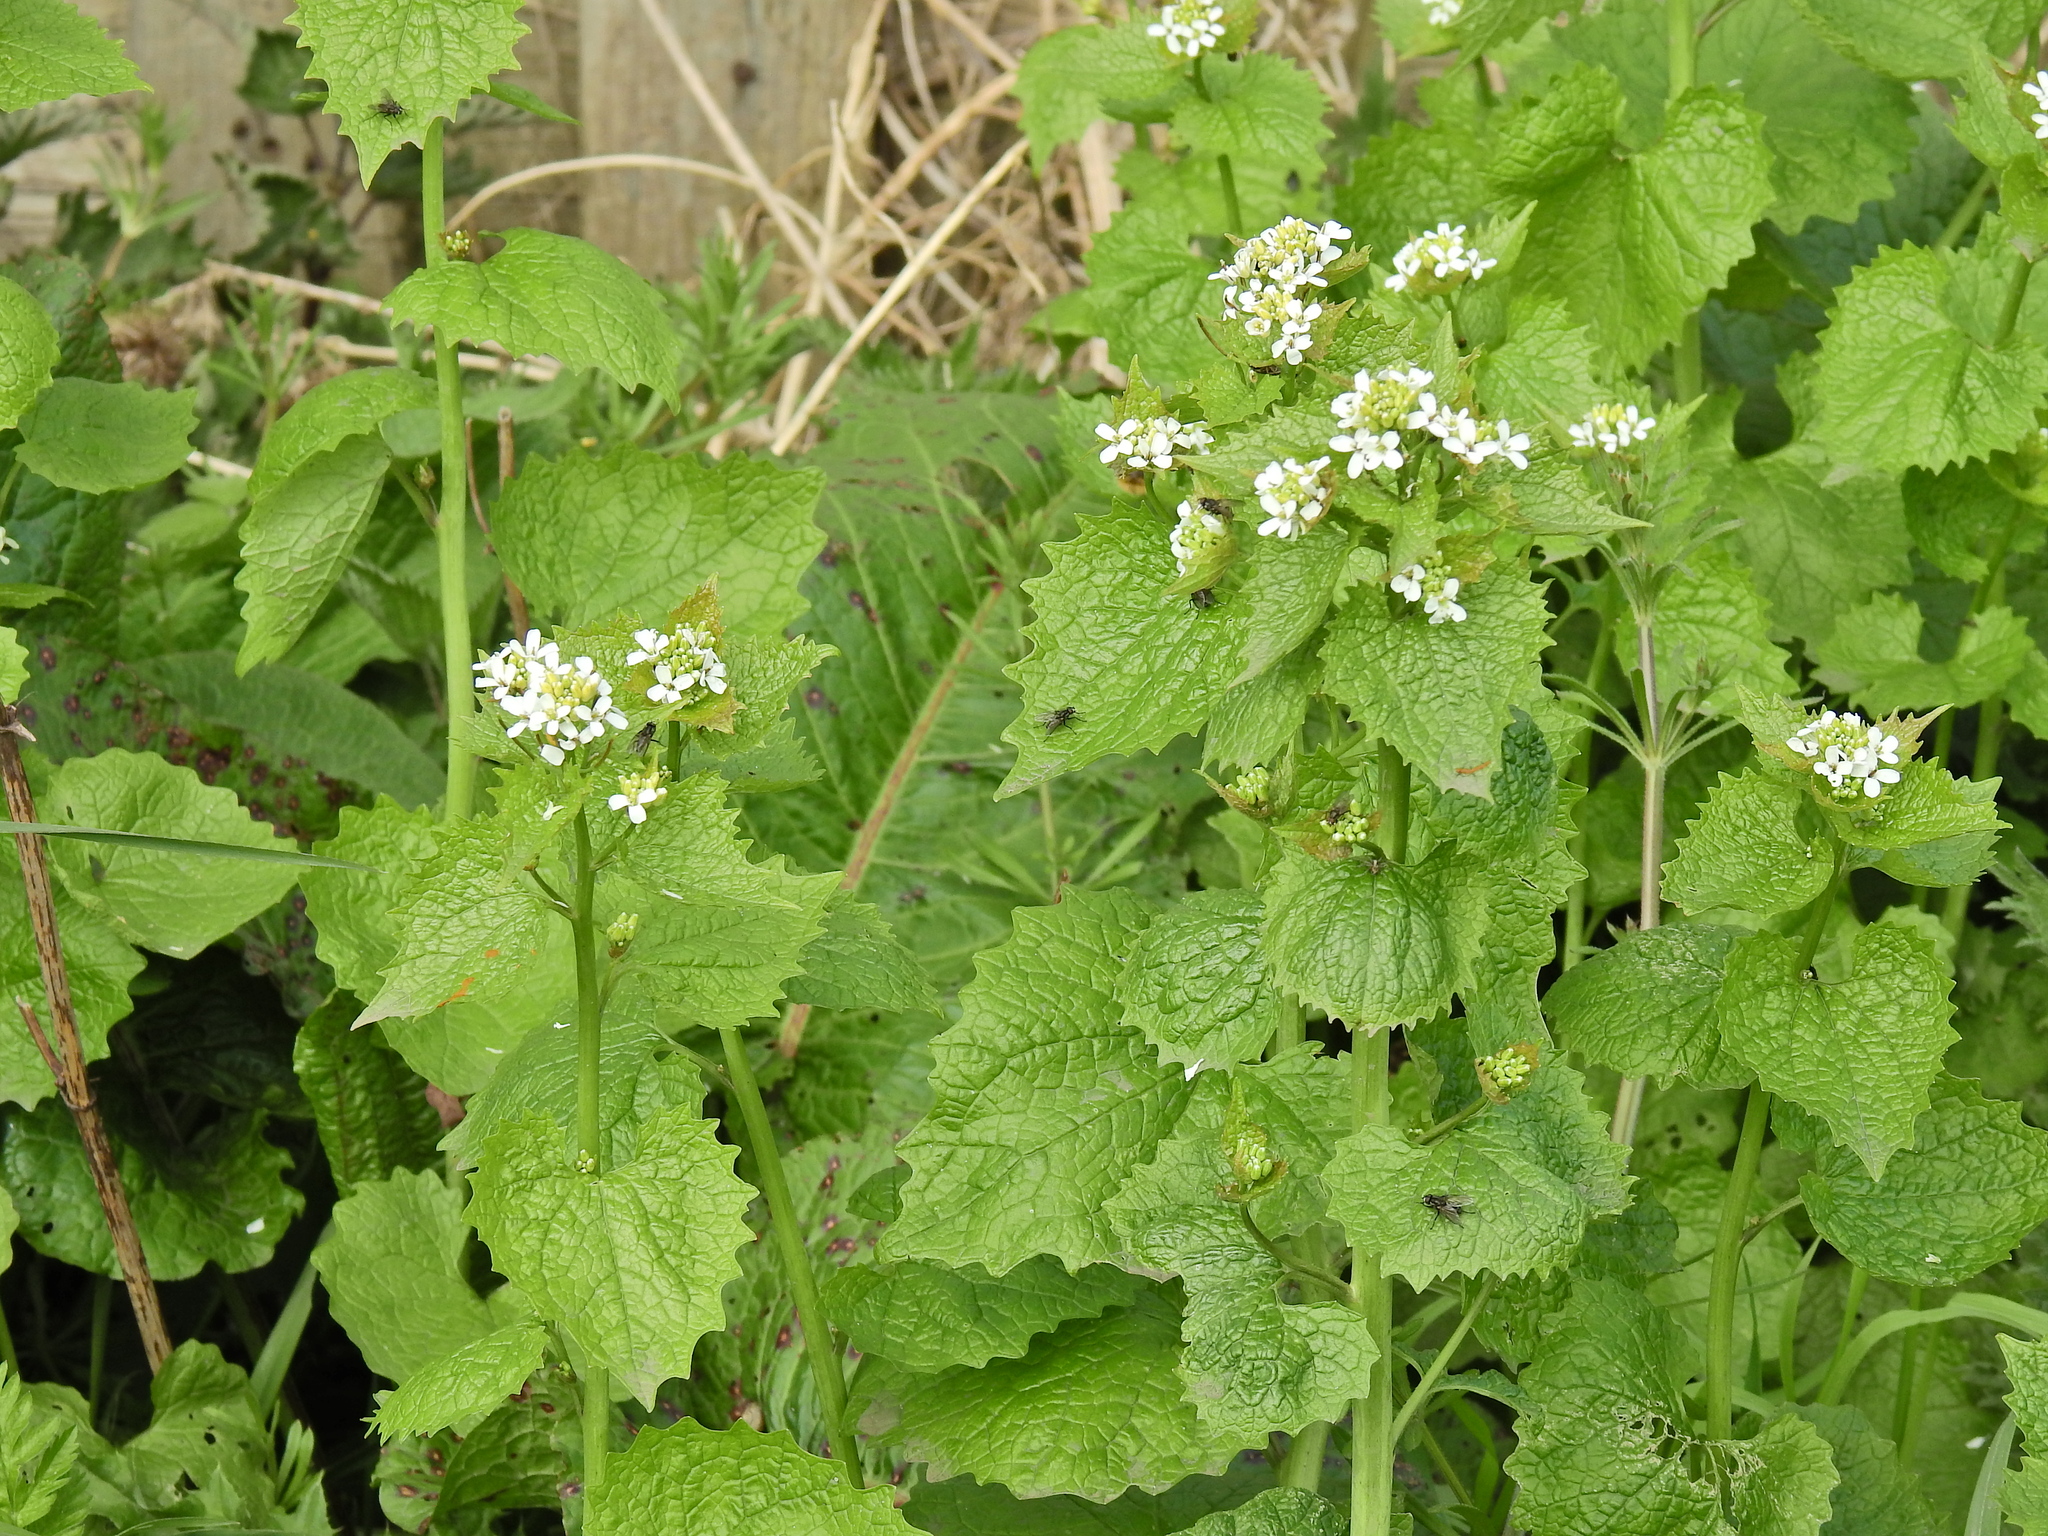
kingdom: Plantae
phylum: Tracheophyta
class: Magnoliopsida
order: Brassicales
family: Brassicaceae
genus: Alliaria
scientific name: Alliaria petiolata
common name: Garlic mustard
